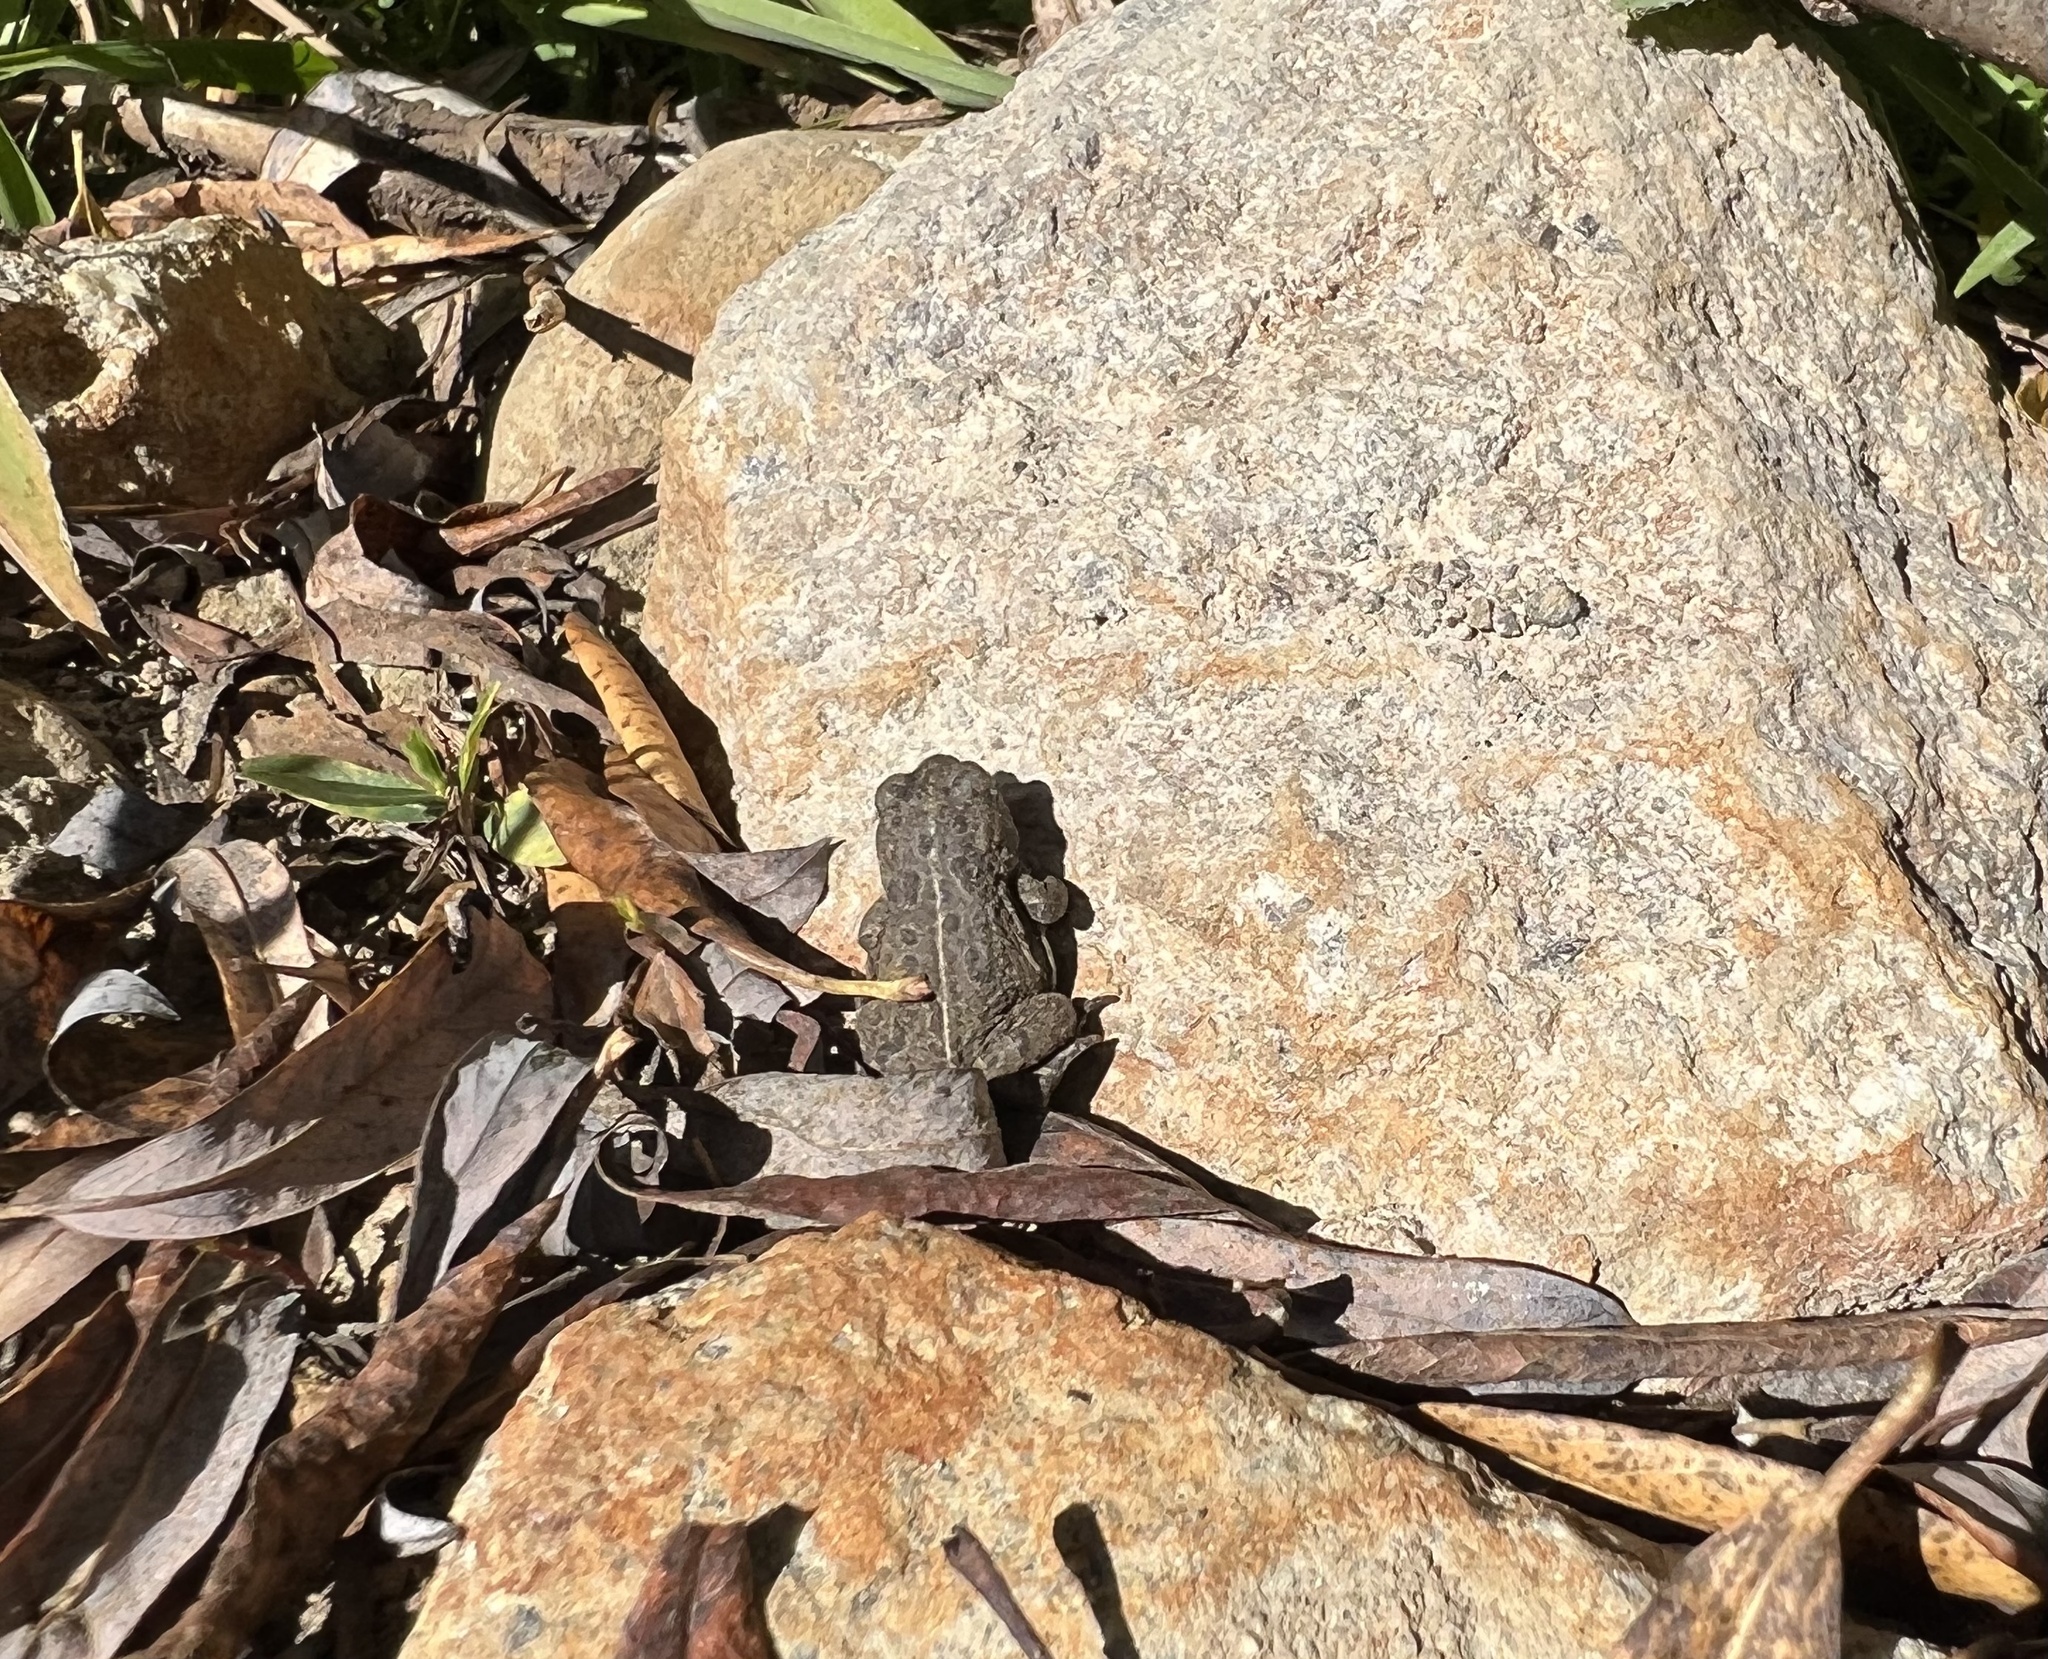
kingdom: Animalia
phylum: Chordata
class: Amphibia
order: Anura
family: Bufonidae
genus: Anaxyrus
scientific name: Anaxyrus boreas
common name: Western toad
